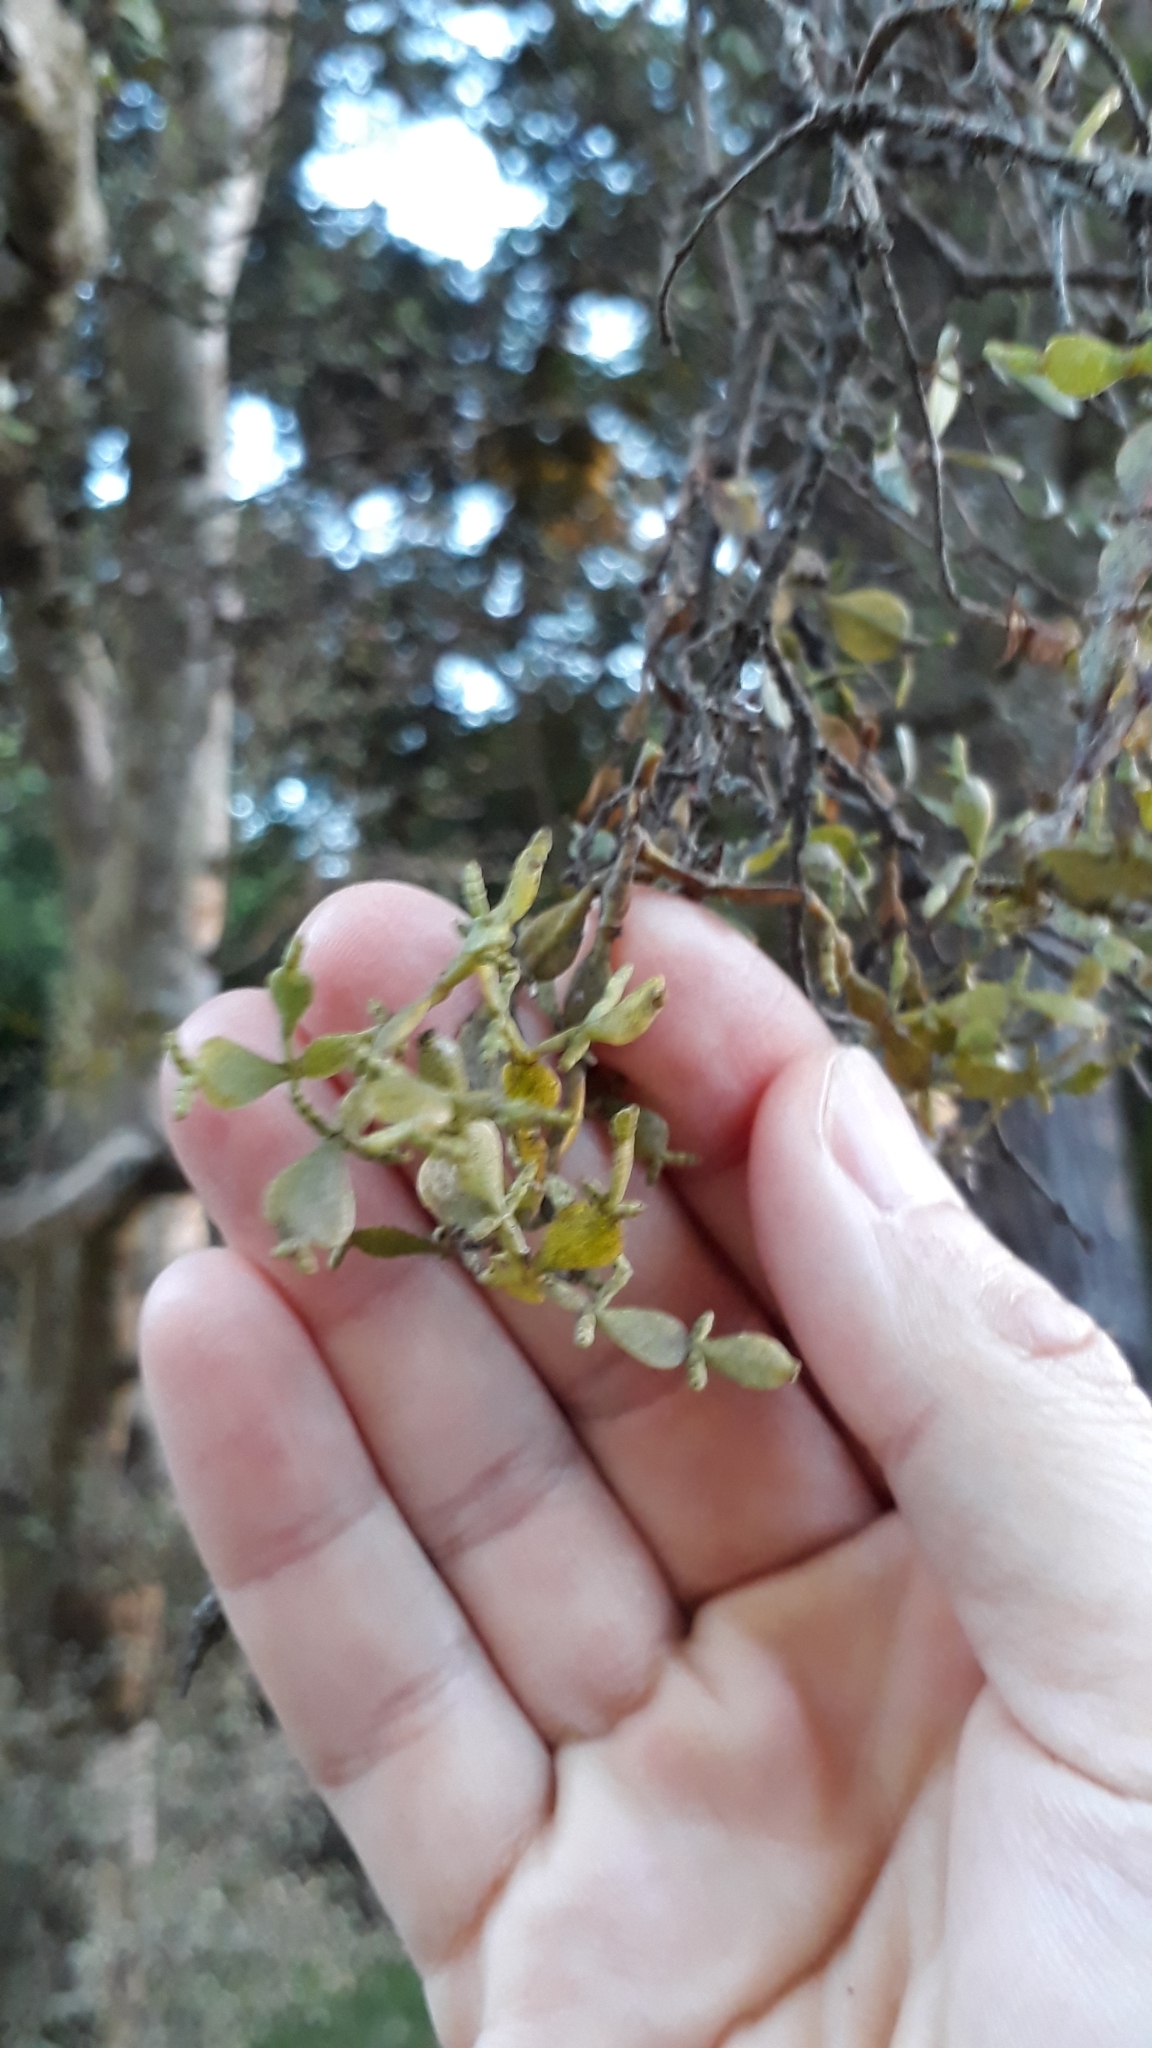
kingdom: Plantae
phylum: Tracheophyta
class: Magnoliopsida
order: Santalales
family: Viscaceae
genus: Korthalsella
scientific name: Korthalsella lindsayi
